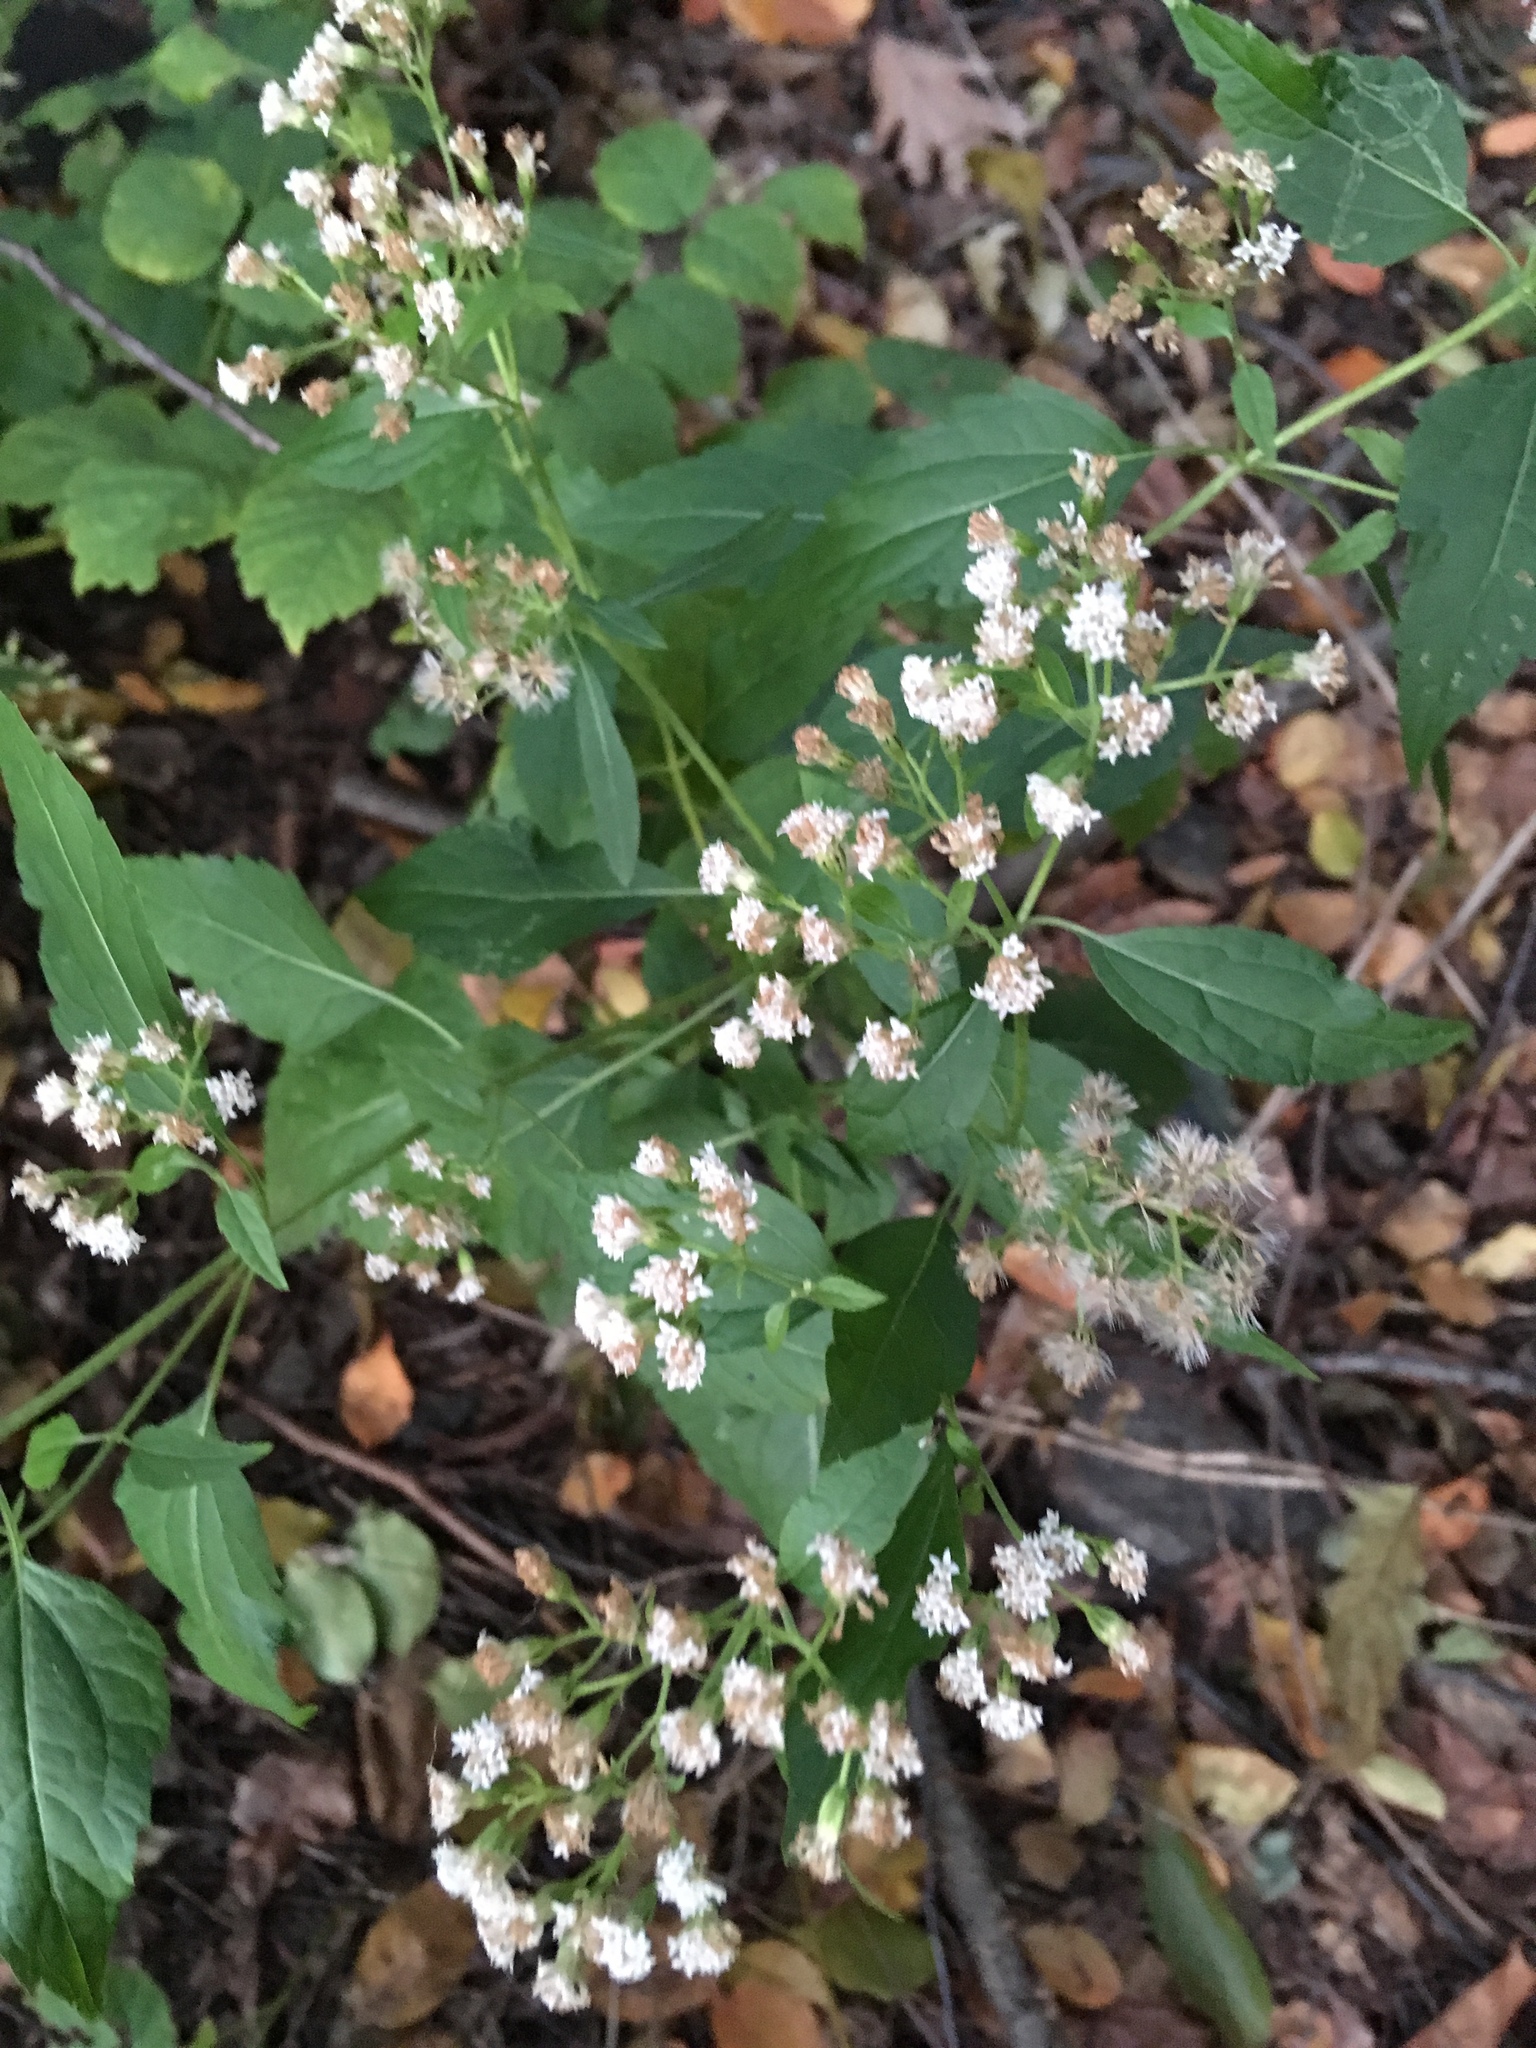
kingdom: Plantae
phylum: Tracheophyta
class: Magnoliopsida
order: Asterales
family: Asteraceae
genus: Ageratina
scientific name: Ageratina altissima
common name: White snakeroot
